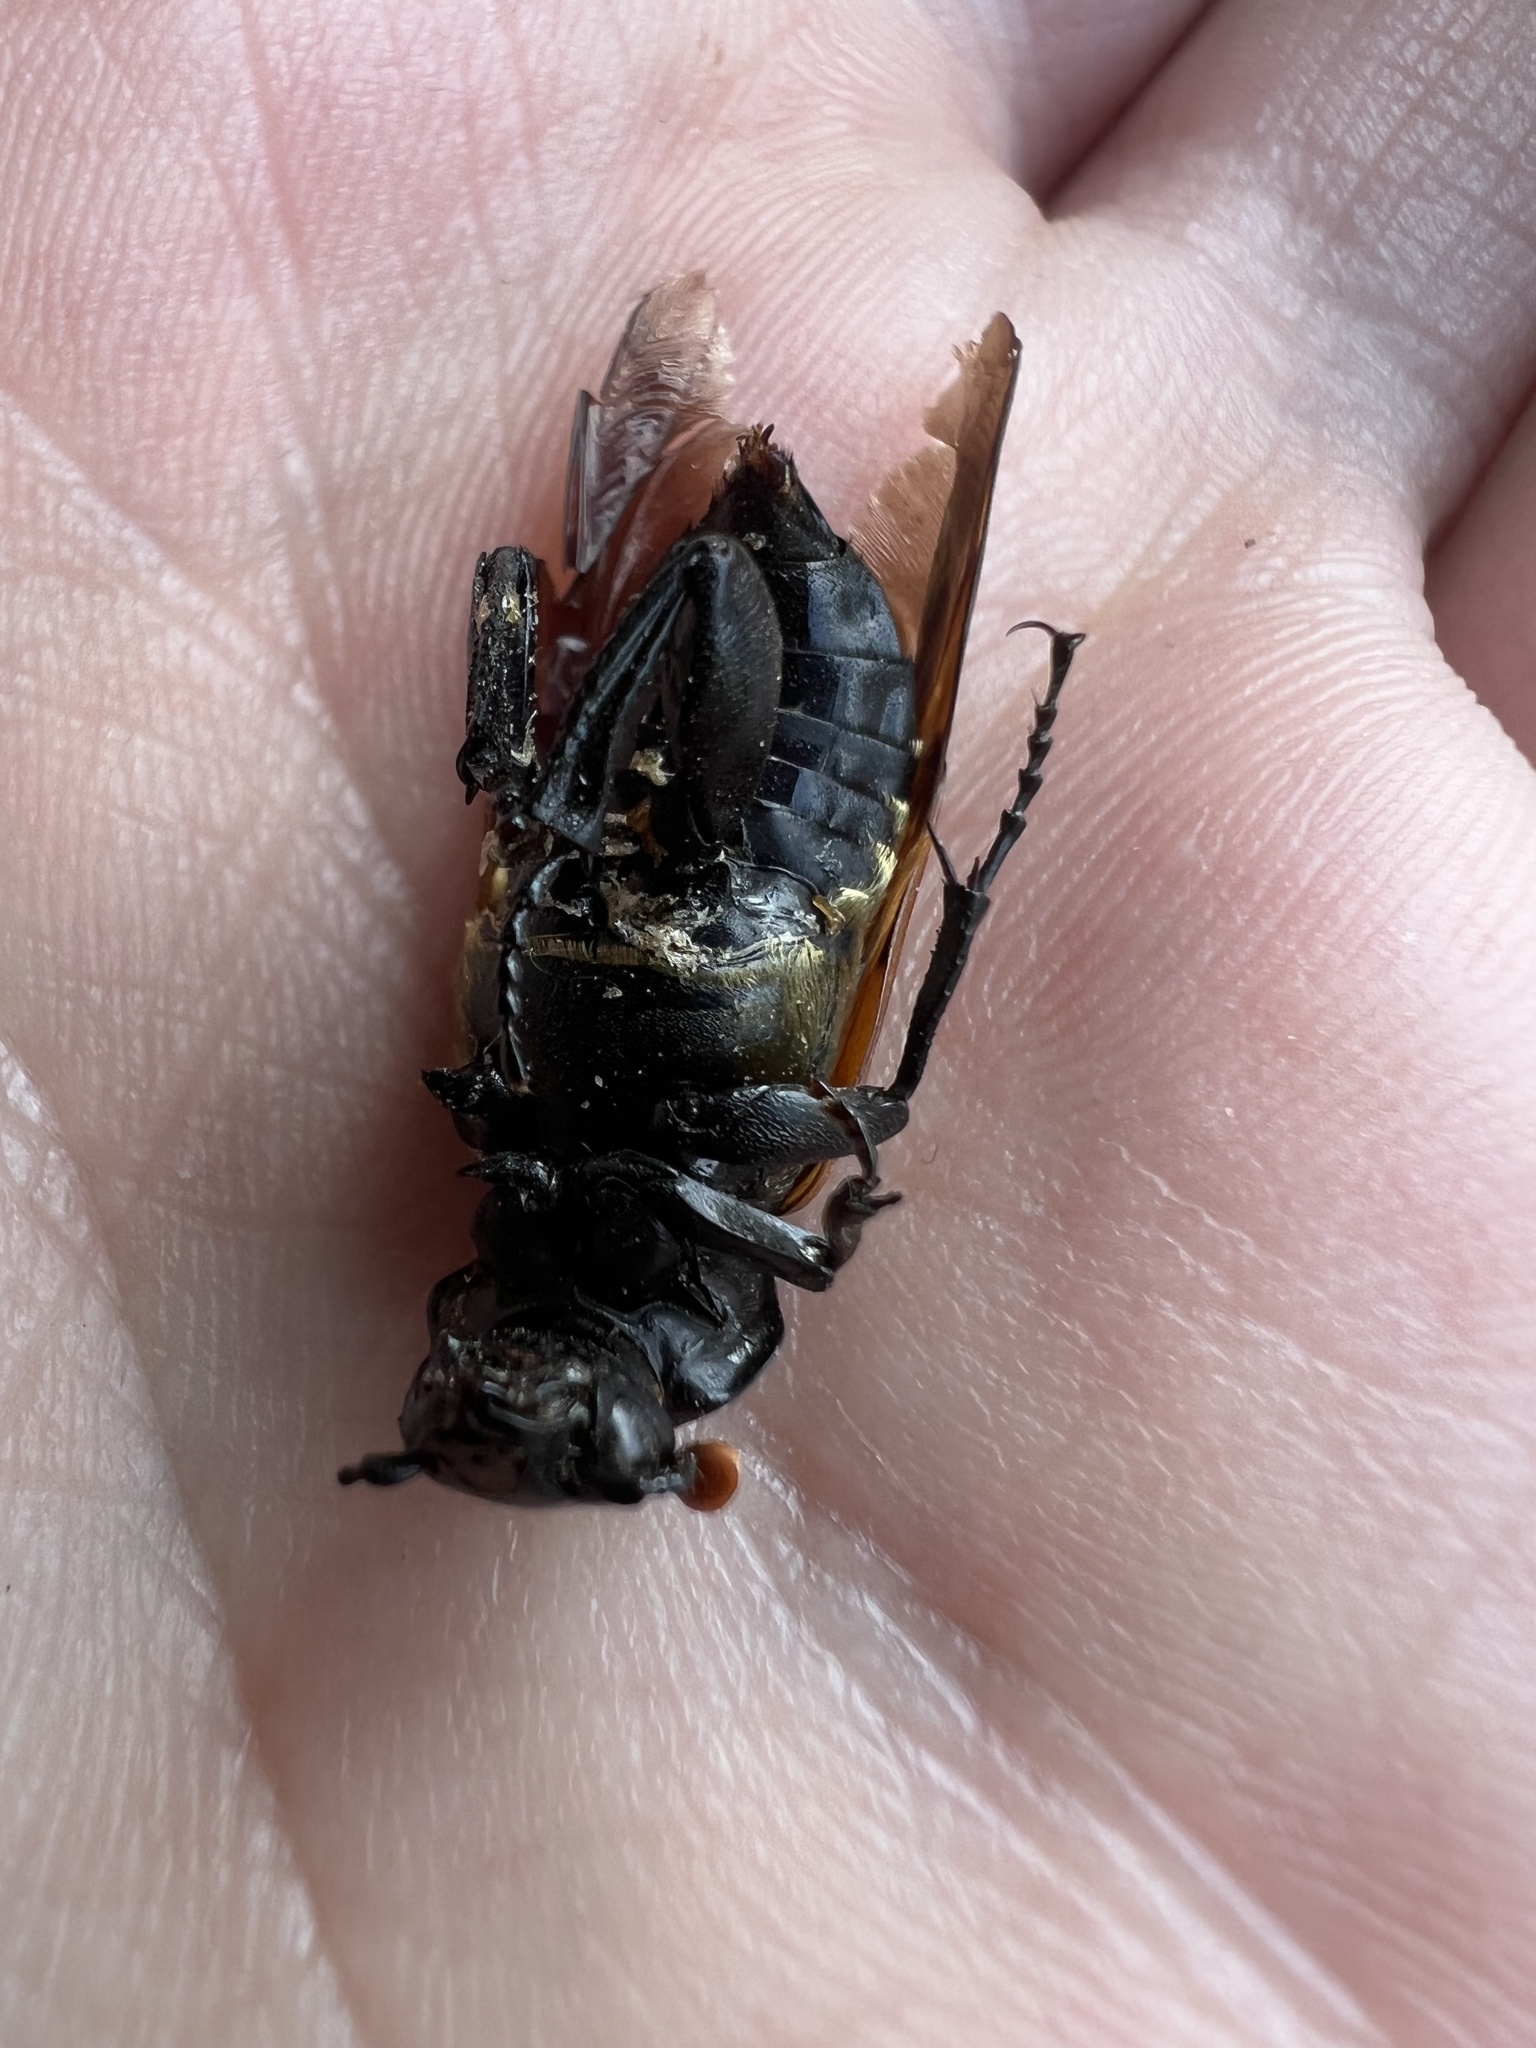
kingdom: Animalia
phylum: Arthropoda
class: Insecta
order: Coleoptera
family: Staphylinidae
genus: Nicrophorus
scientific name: Nicrophorus marginatus
